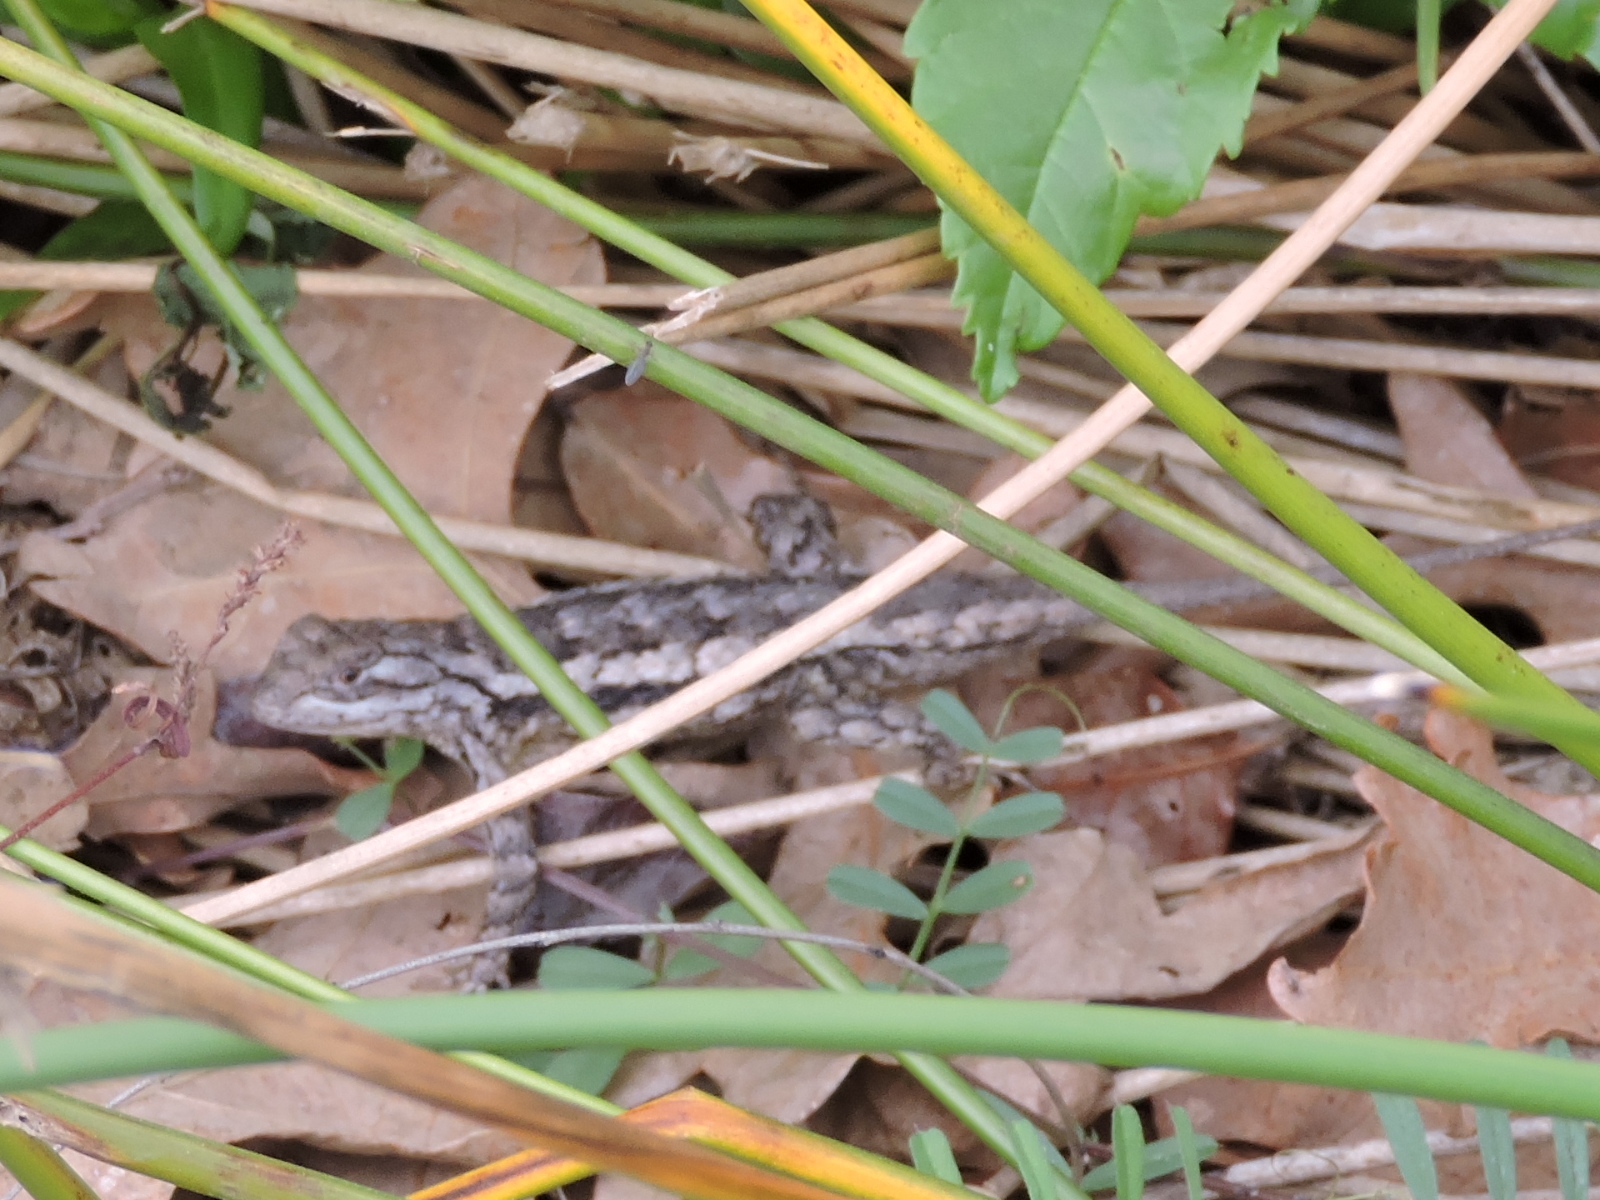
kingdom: Animalia
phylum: Chordata
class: Squamata
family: Phrynosomatidae
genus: Sceloporus
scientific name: Sceloporus olivaceus
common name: Texas spiny lizard
